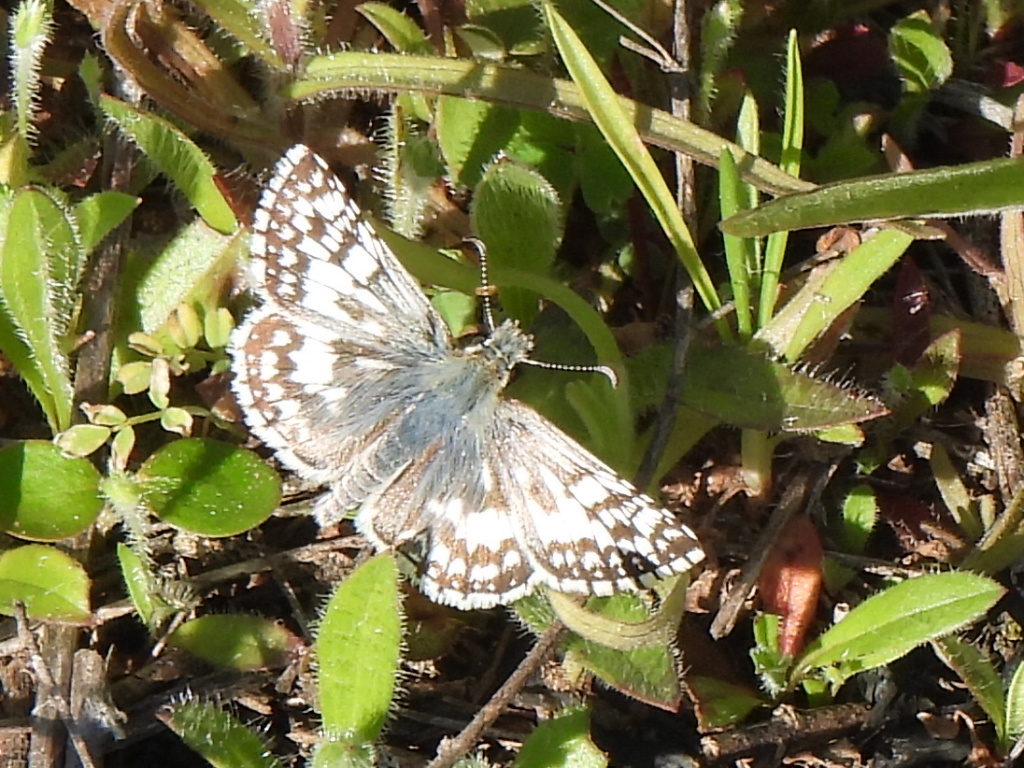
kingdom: Animalia
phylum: Arthropoda
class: Insecta
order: Lepidoptera
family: Hesperiidae
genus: Burnsius
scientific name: Burnsius
